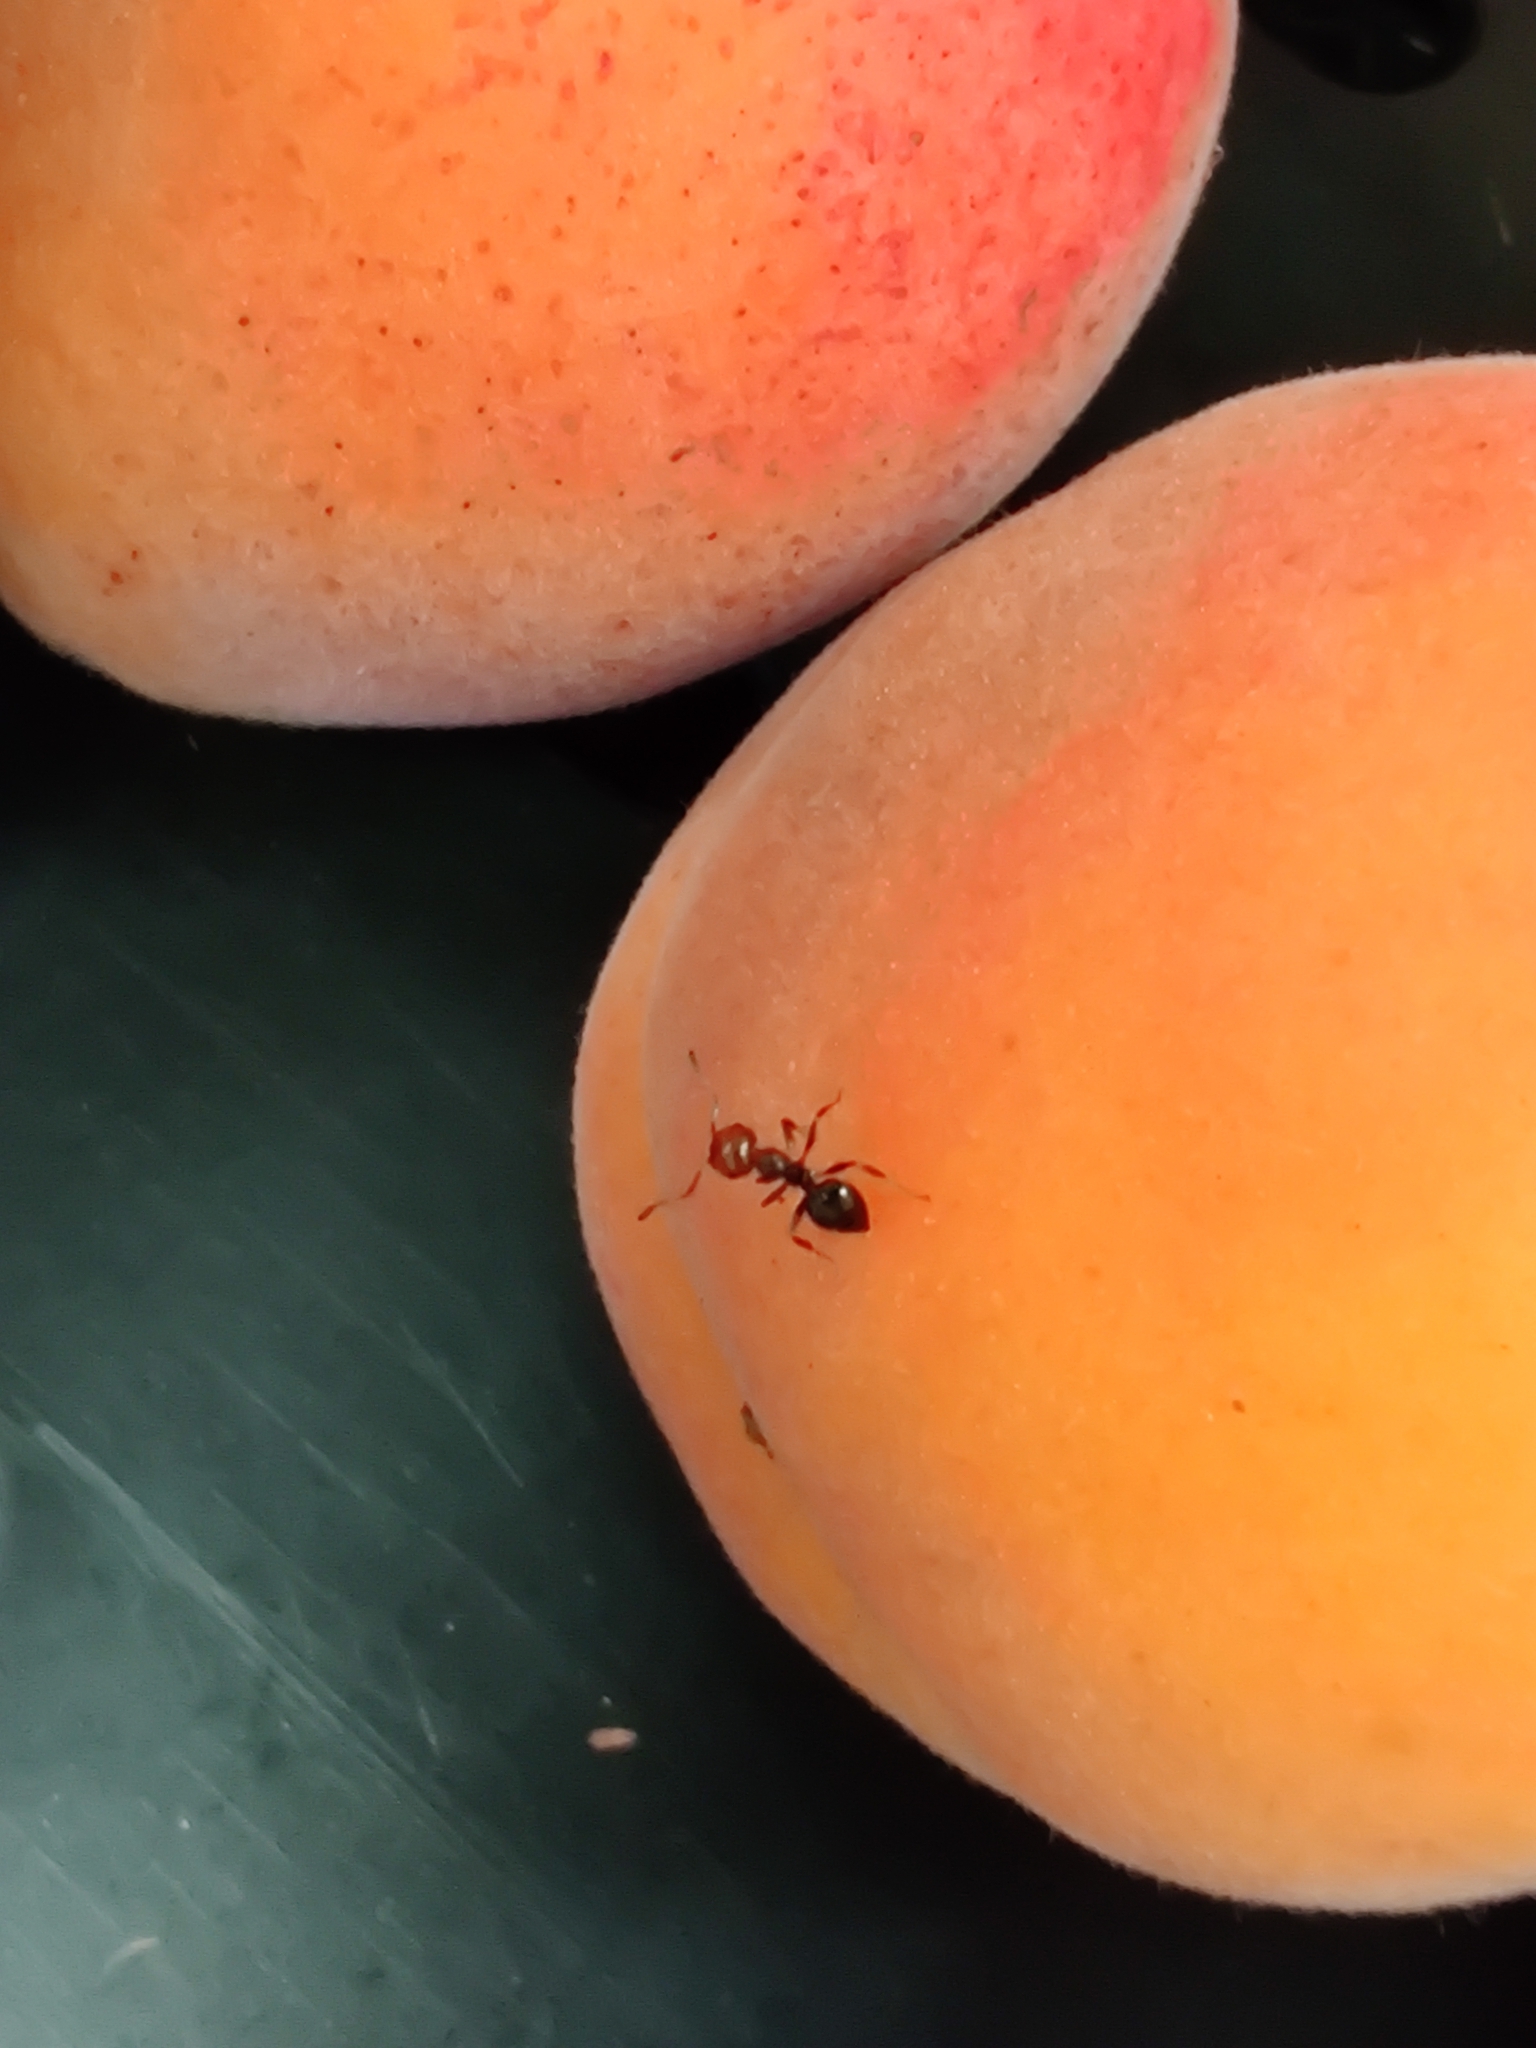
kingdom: Animalia
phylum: Arthropoda
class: Insecta
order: Hymenoptera
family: Formicidae
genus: Crematogaster
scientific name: Crematogaster scutellaris
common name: Fourmi du liège
